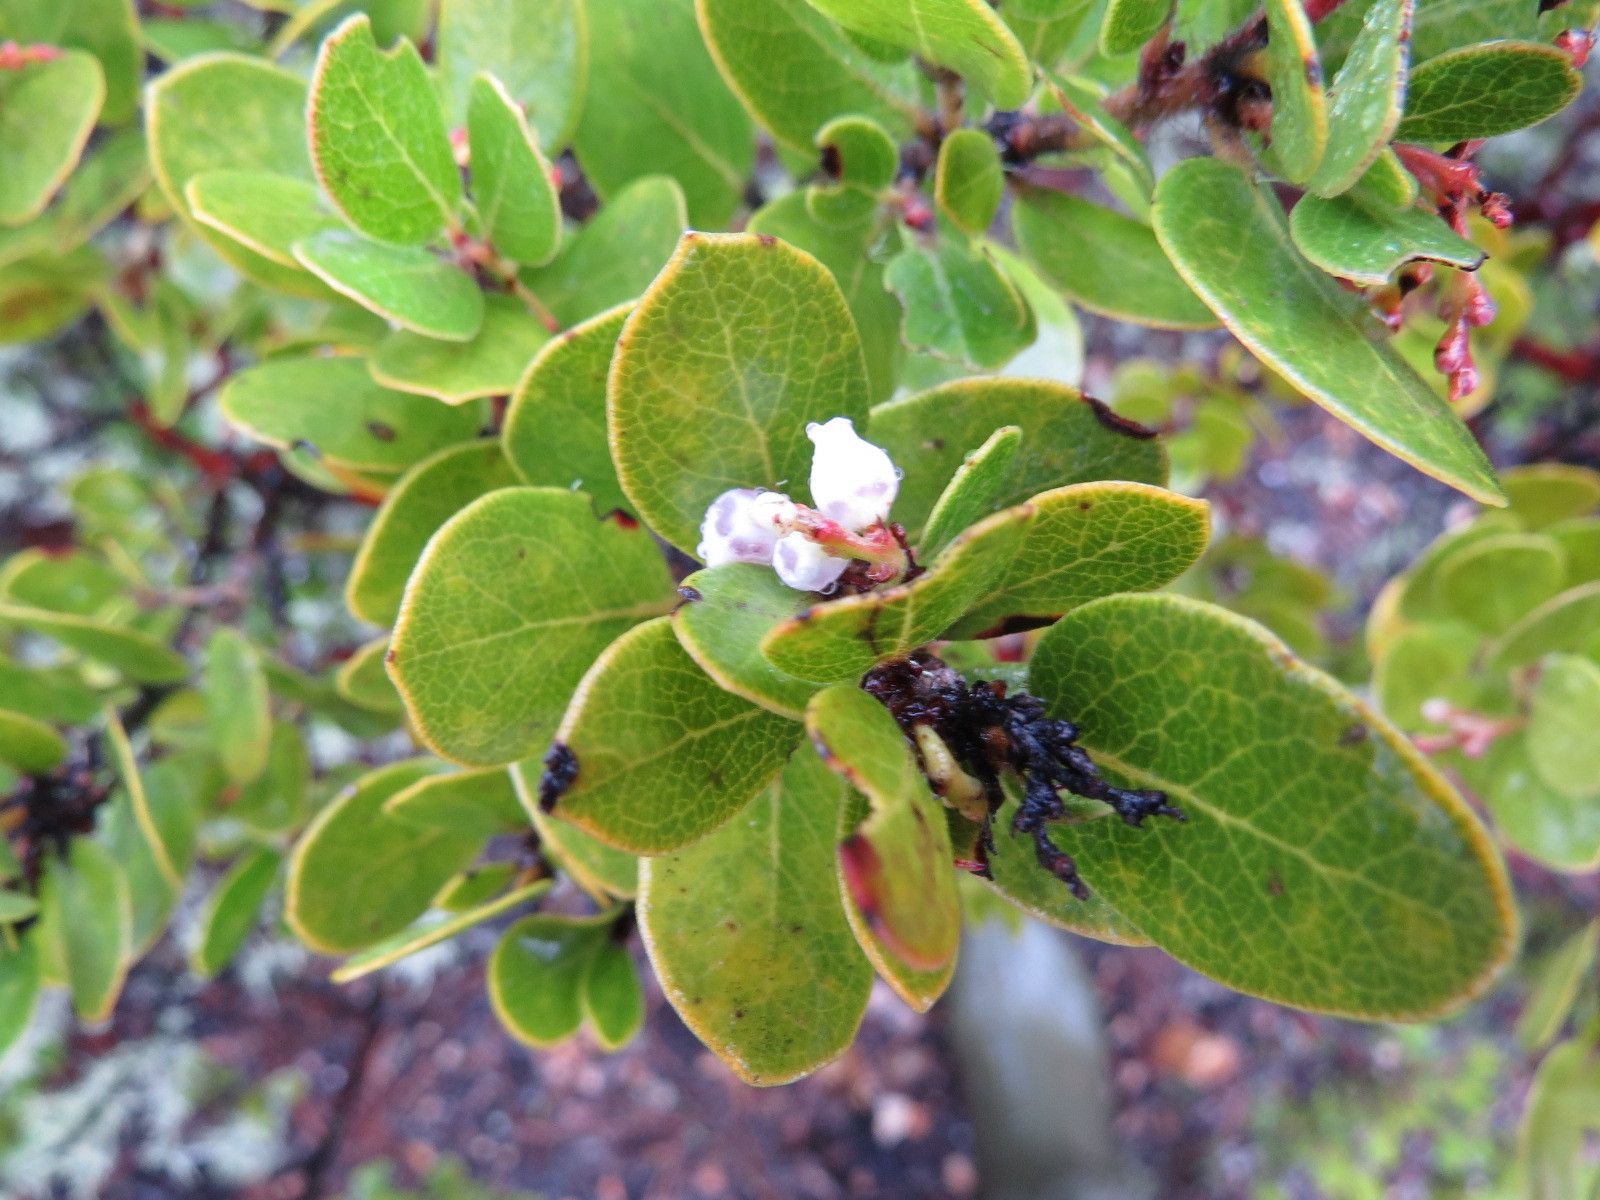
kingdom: Plantae
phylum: Tracheophyta
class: Magnoliopsida
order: Ericales
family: Ericaceae
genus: Arctostaphylos
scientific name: Arctostaphylos nummularia
